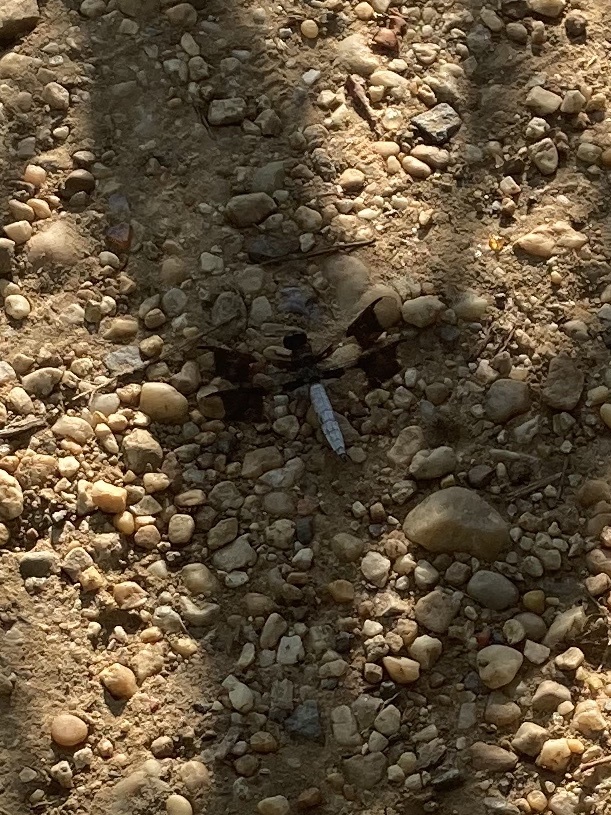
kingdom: Animalia
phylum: Arthropoda
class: Insecta
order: Odonata
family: Libellulidae
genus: Plathemis
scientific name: Plathemis lydia
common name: Common whitetail
